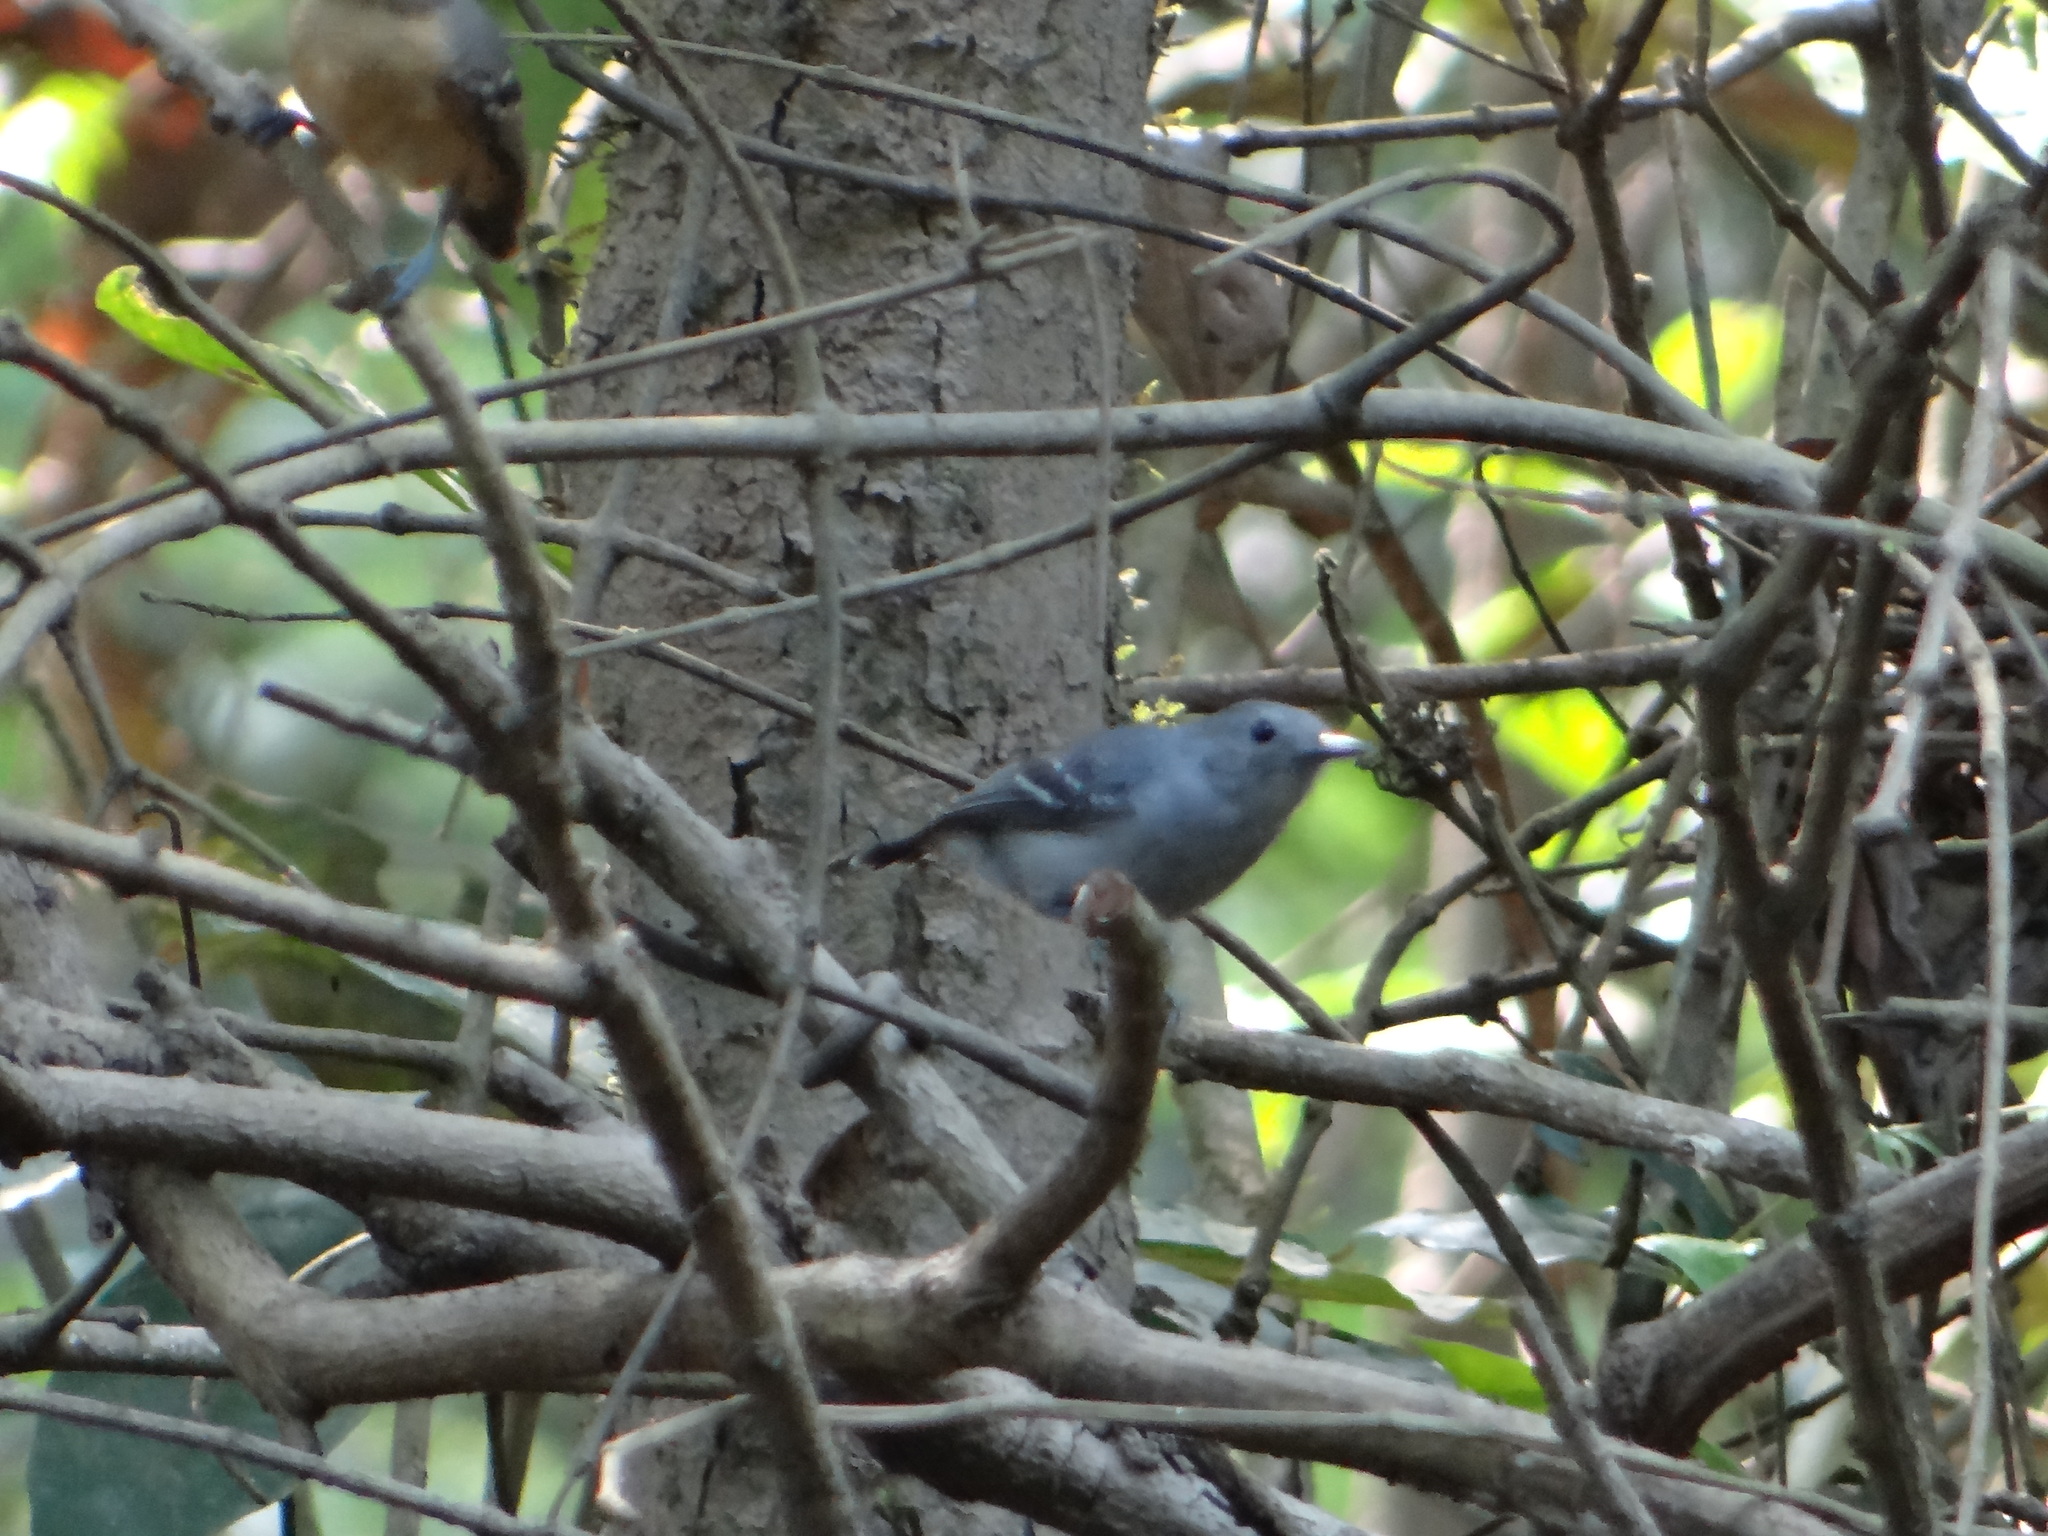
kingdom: Animalia
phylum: Chordata
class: Aves
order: Passeriformes
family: Thamnophilidae
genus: Myrmotherula
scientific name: Myrmotherula assimilis
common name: Leaden antwren
